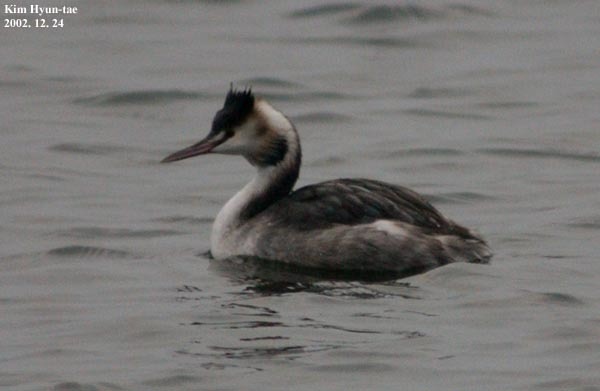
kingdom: Animalia
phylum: Chordata
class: Aves
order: Podicipediformes
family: Podicipedidae
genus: Podiceps
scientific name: Podiceps cristatus
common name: Great crested grebe
